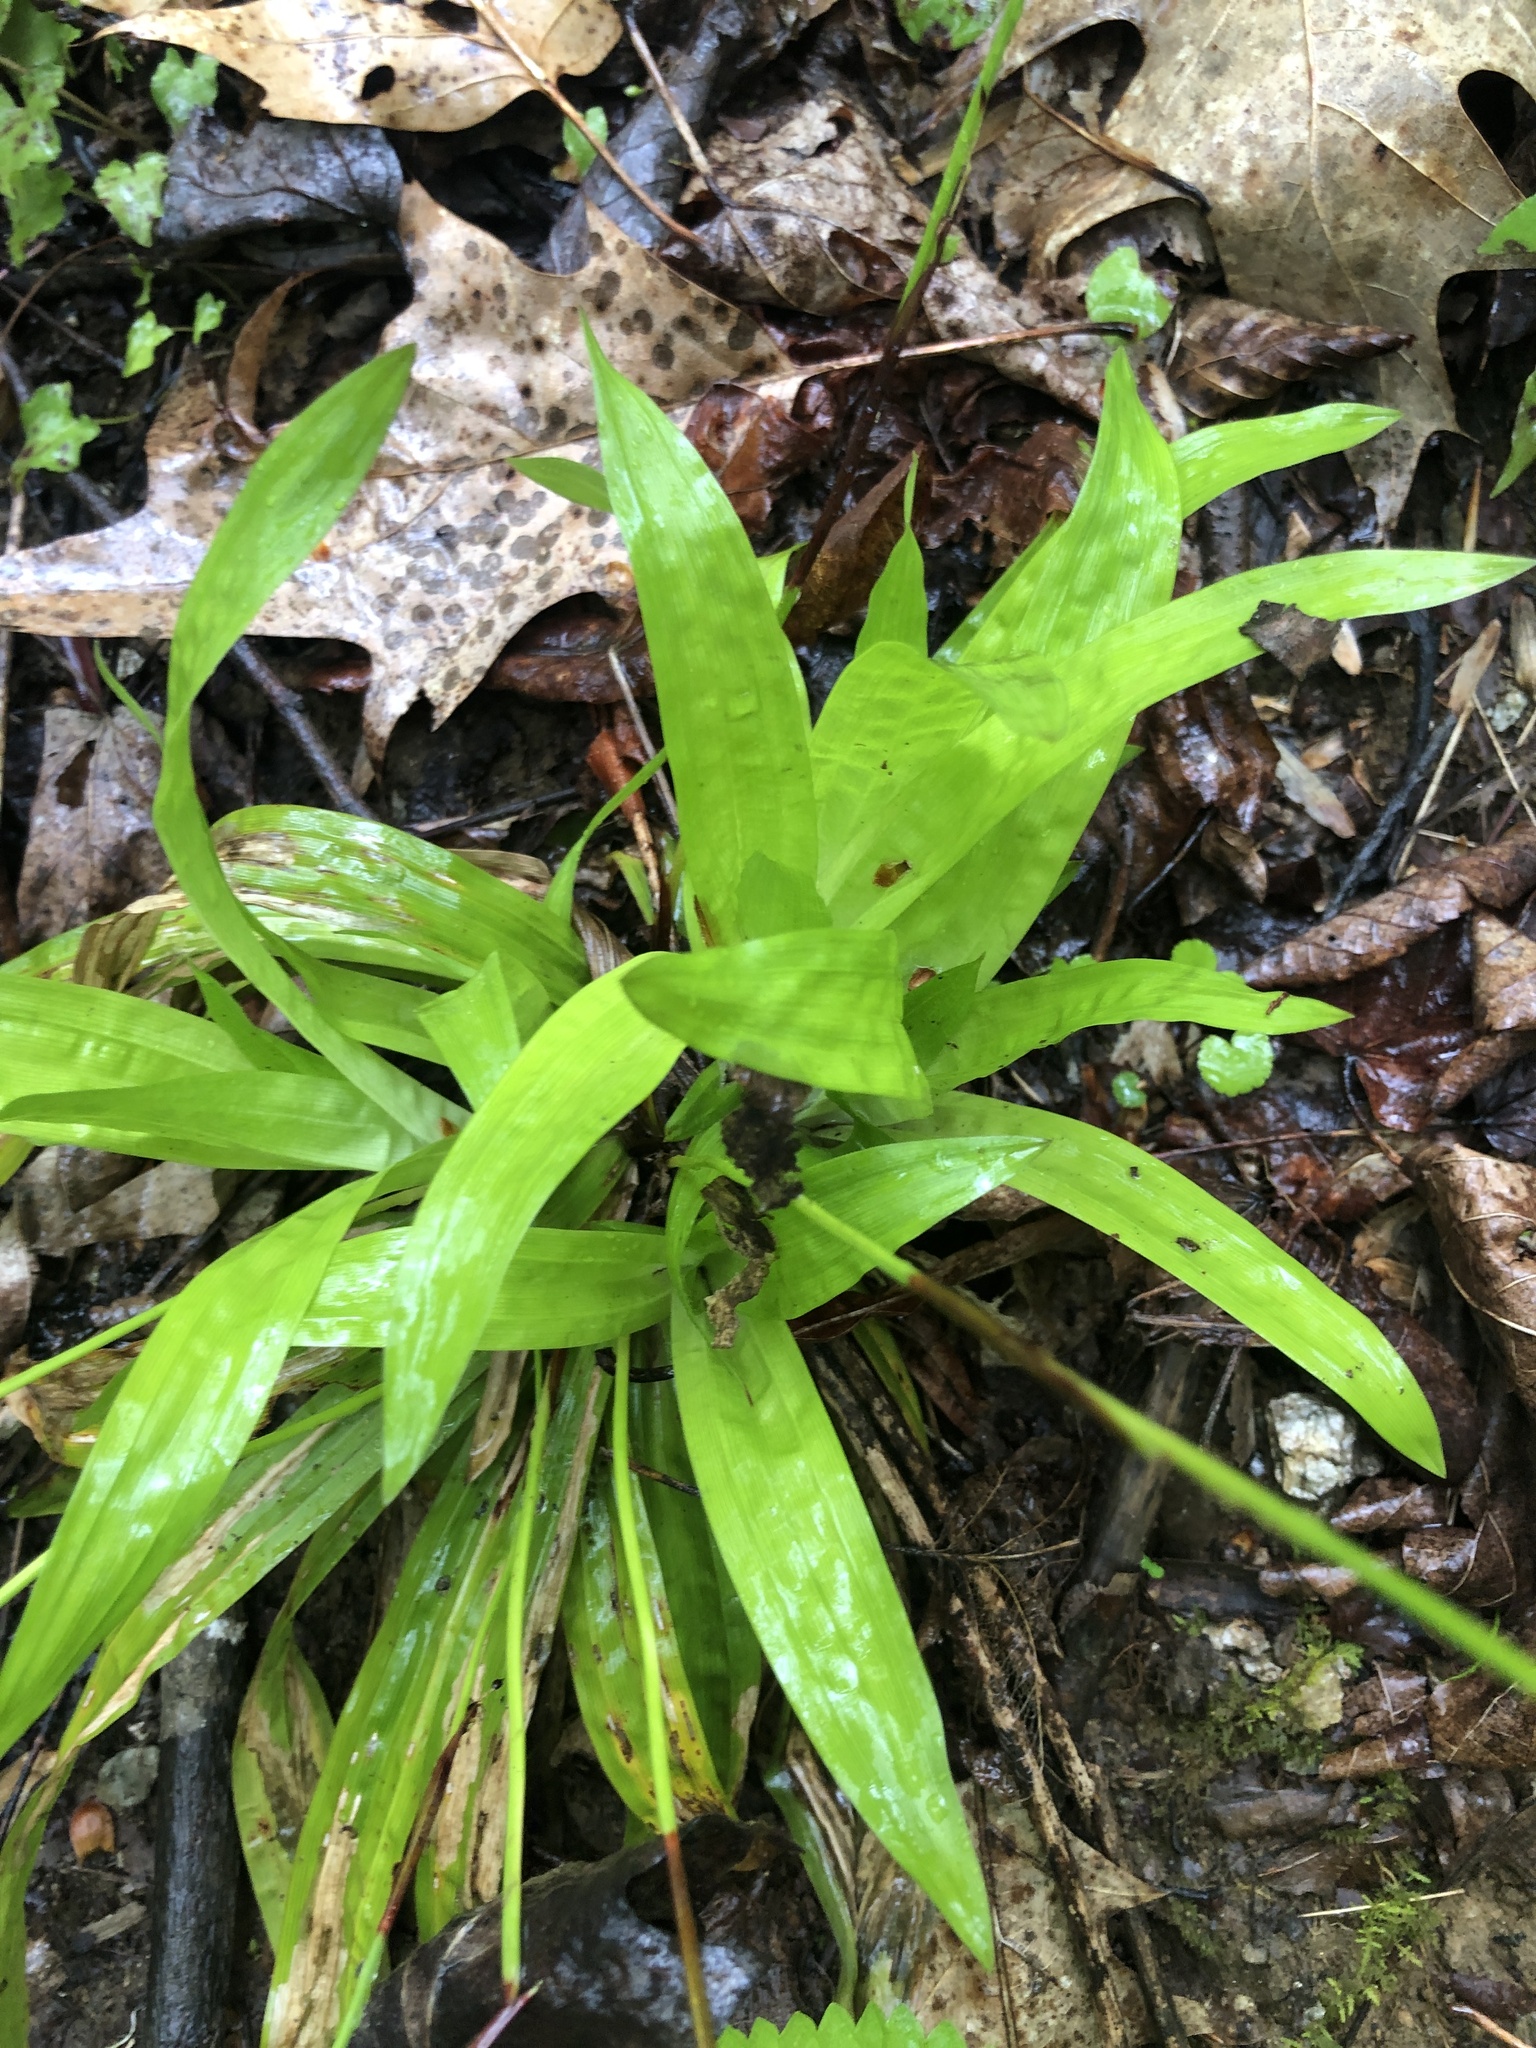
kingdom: Plantae
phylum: Tracheophyta
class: Liliopsida
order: Poales
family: Cyperaceae
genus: Carex
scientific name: Carex plantaginea
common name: Plantain-leaved sedge
